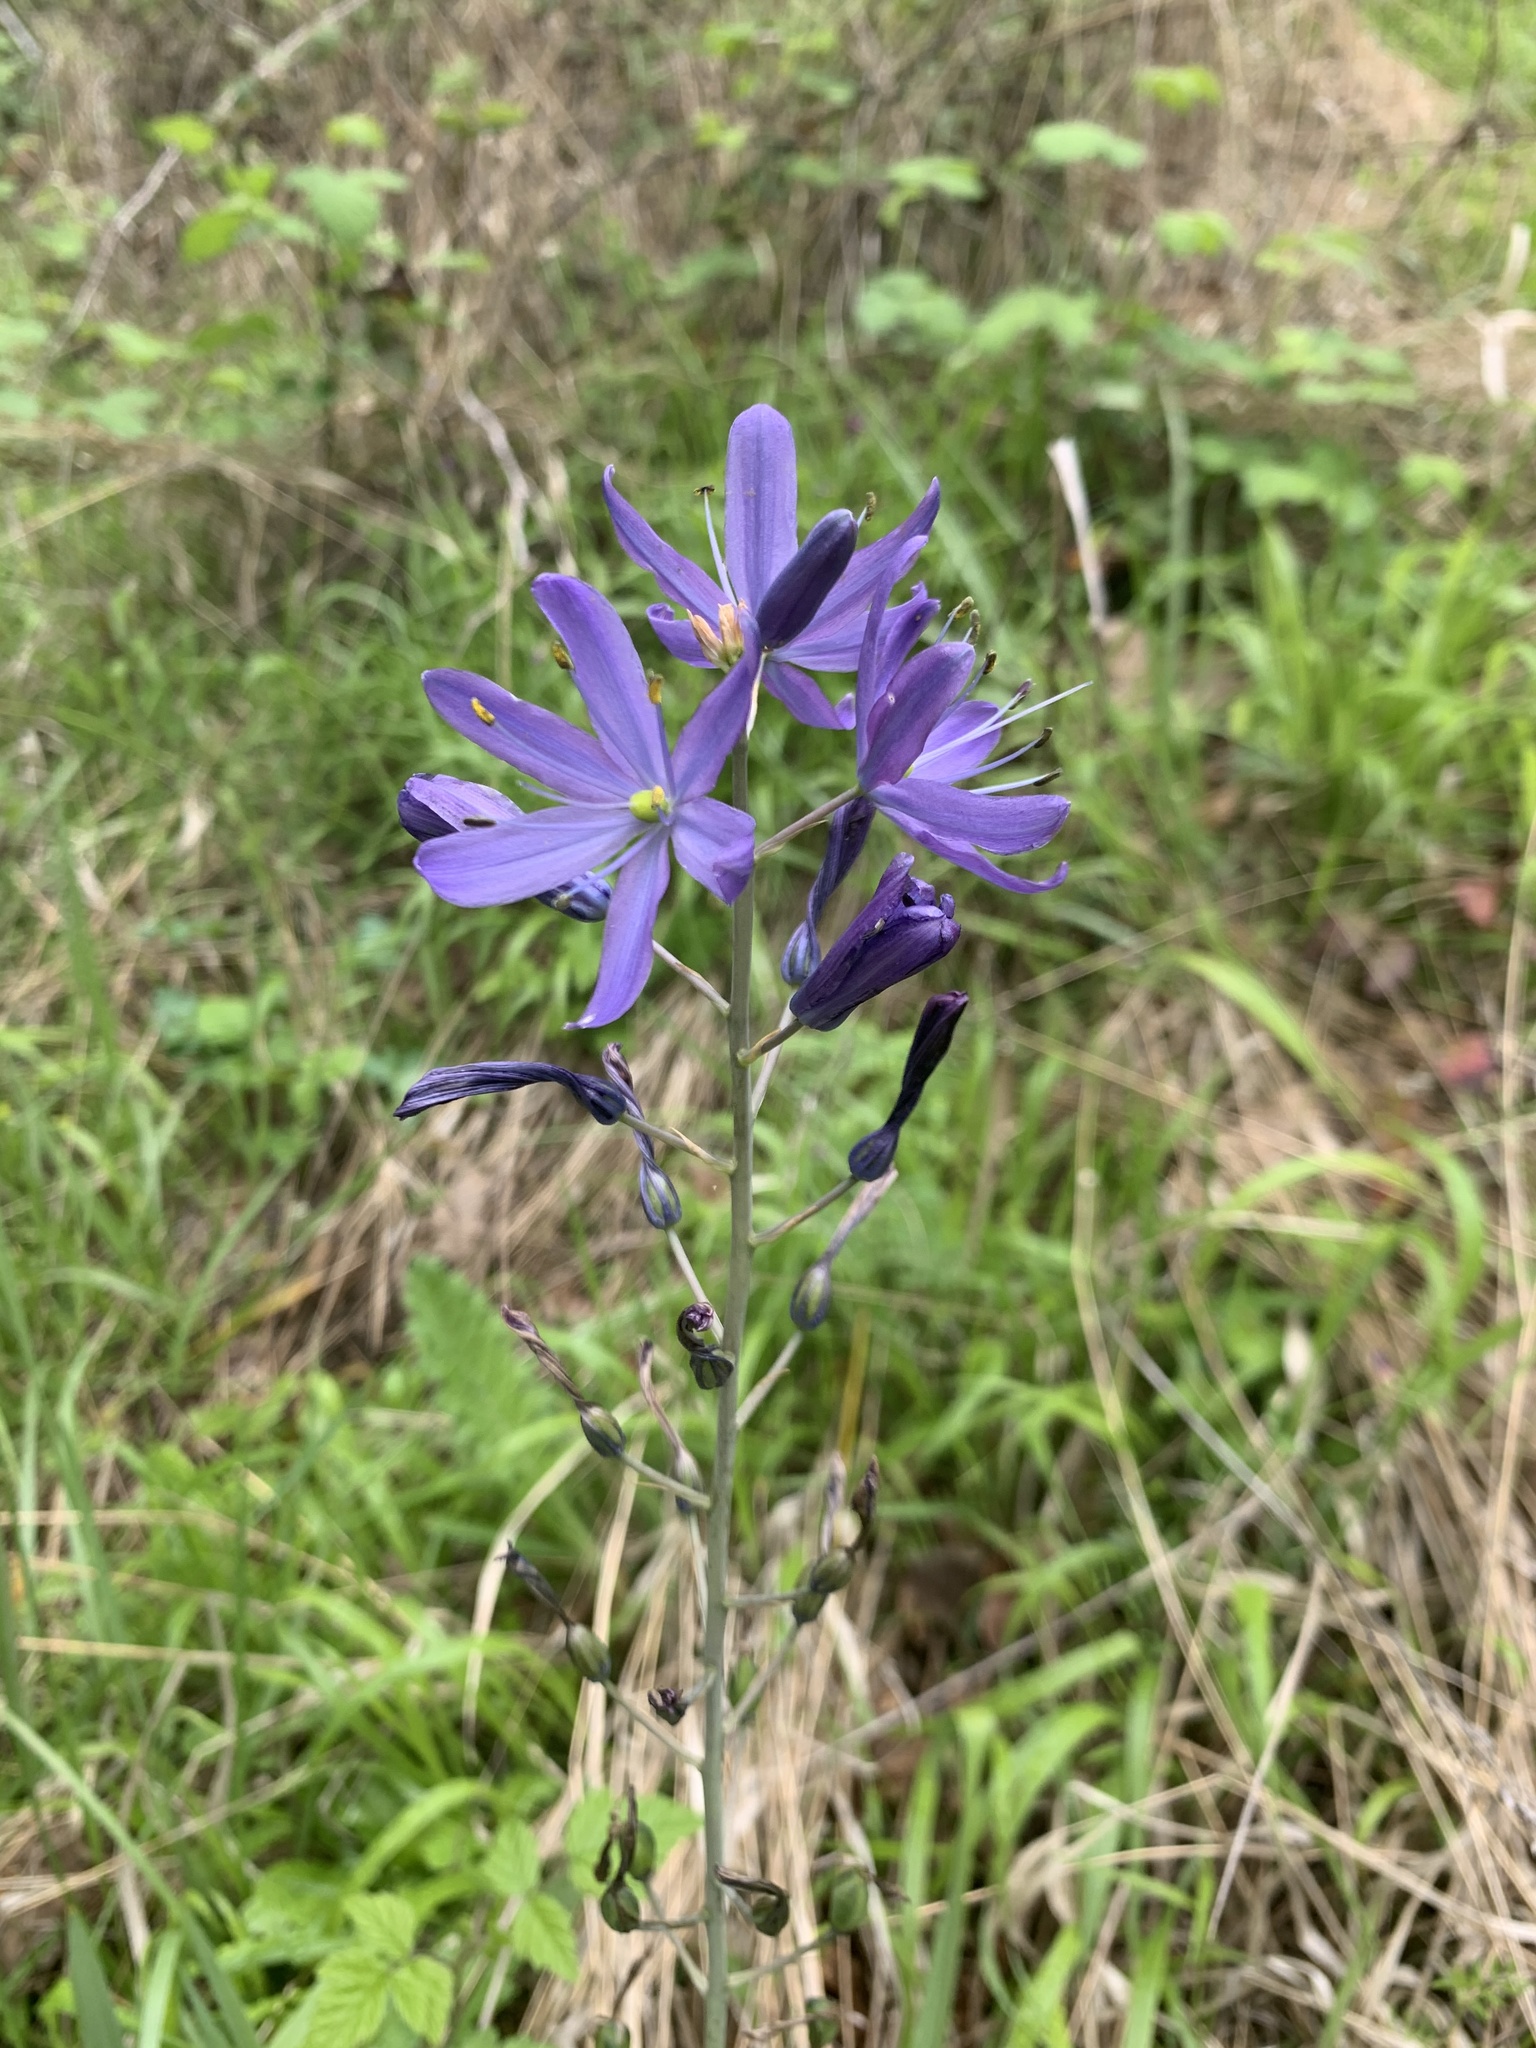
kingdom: Plantae
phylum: Tracheophyta
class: Liliopsida
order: Asparagales
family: Asparagaceae
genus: Camassia
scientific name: Camassia leichtlinii
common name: Leichtlin's camas
